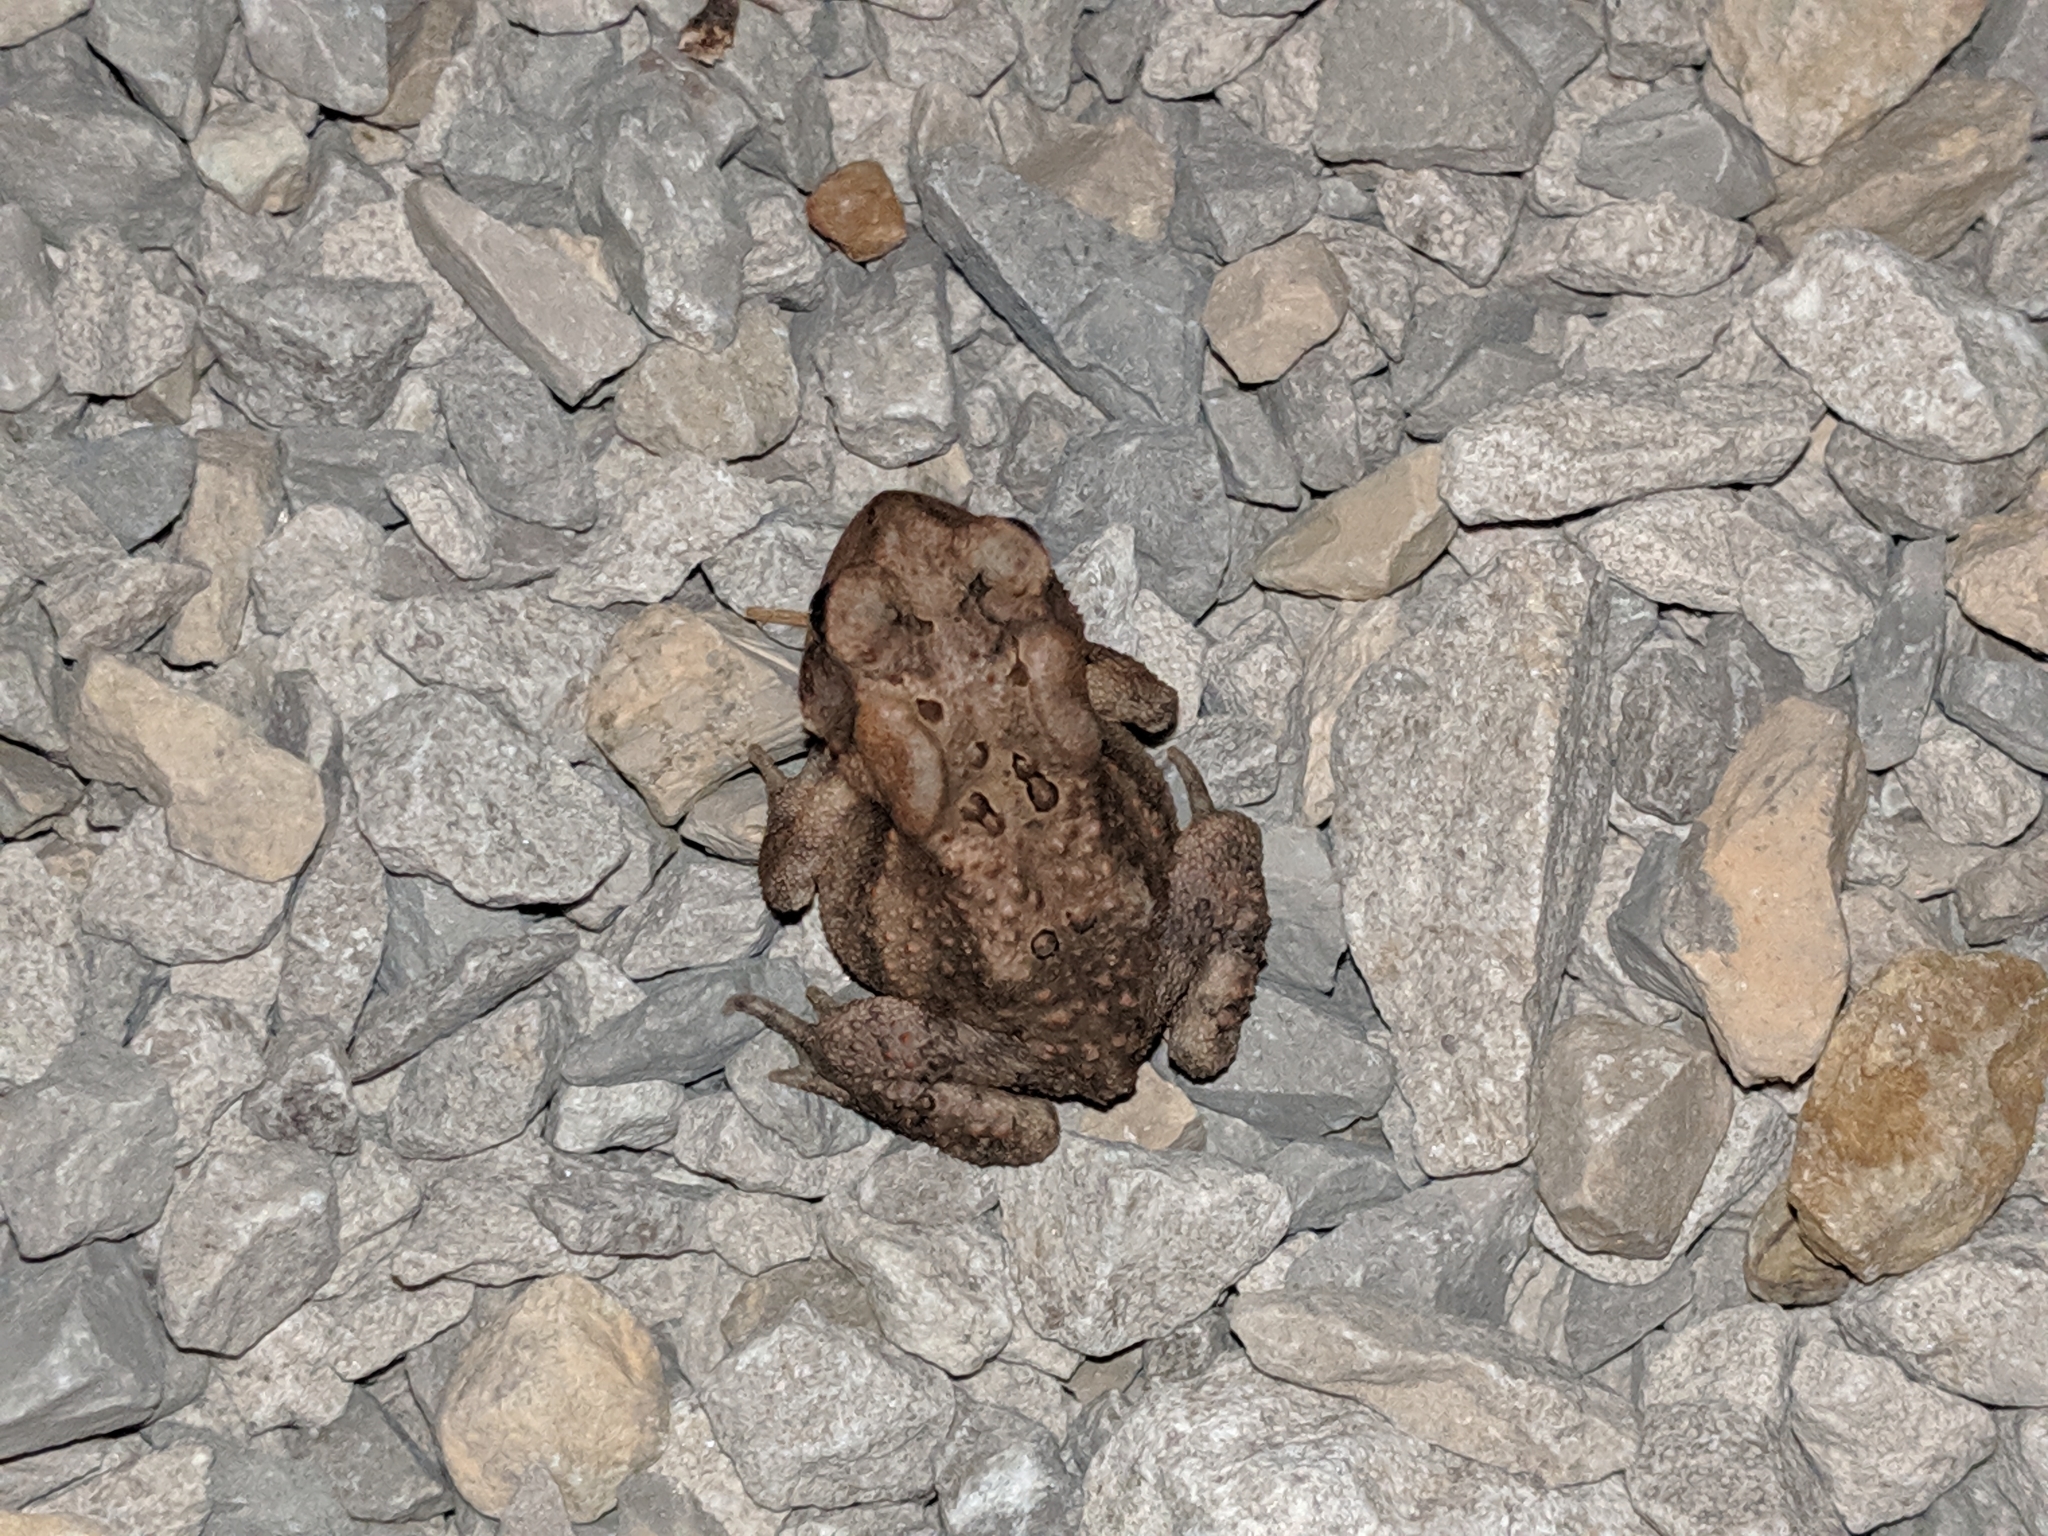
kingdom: Animalia
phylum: Chordata
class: Amphibia
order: Anura
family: Bufonidae
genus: Anaxyrus
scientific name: Anaxyrus americanus
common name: American toad
